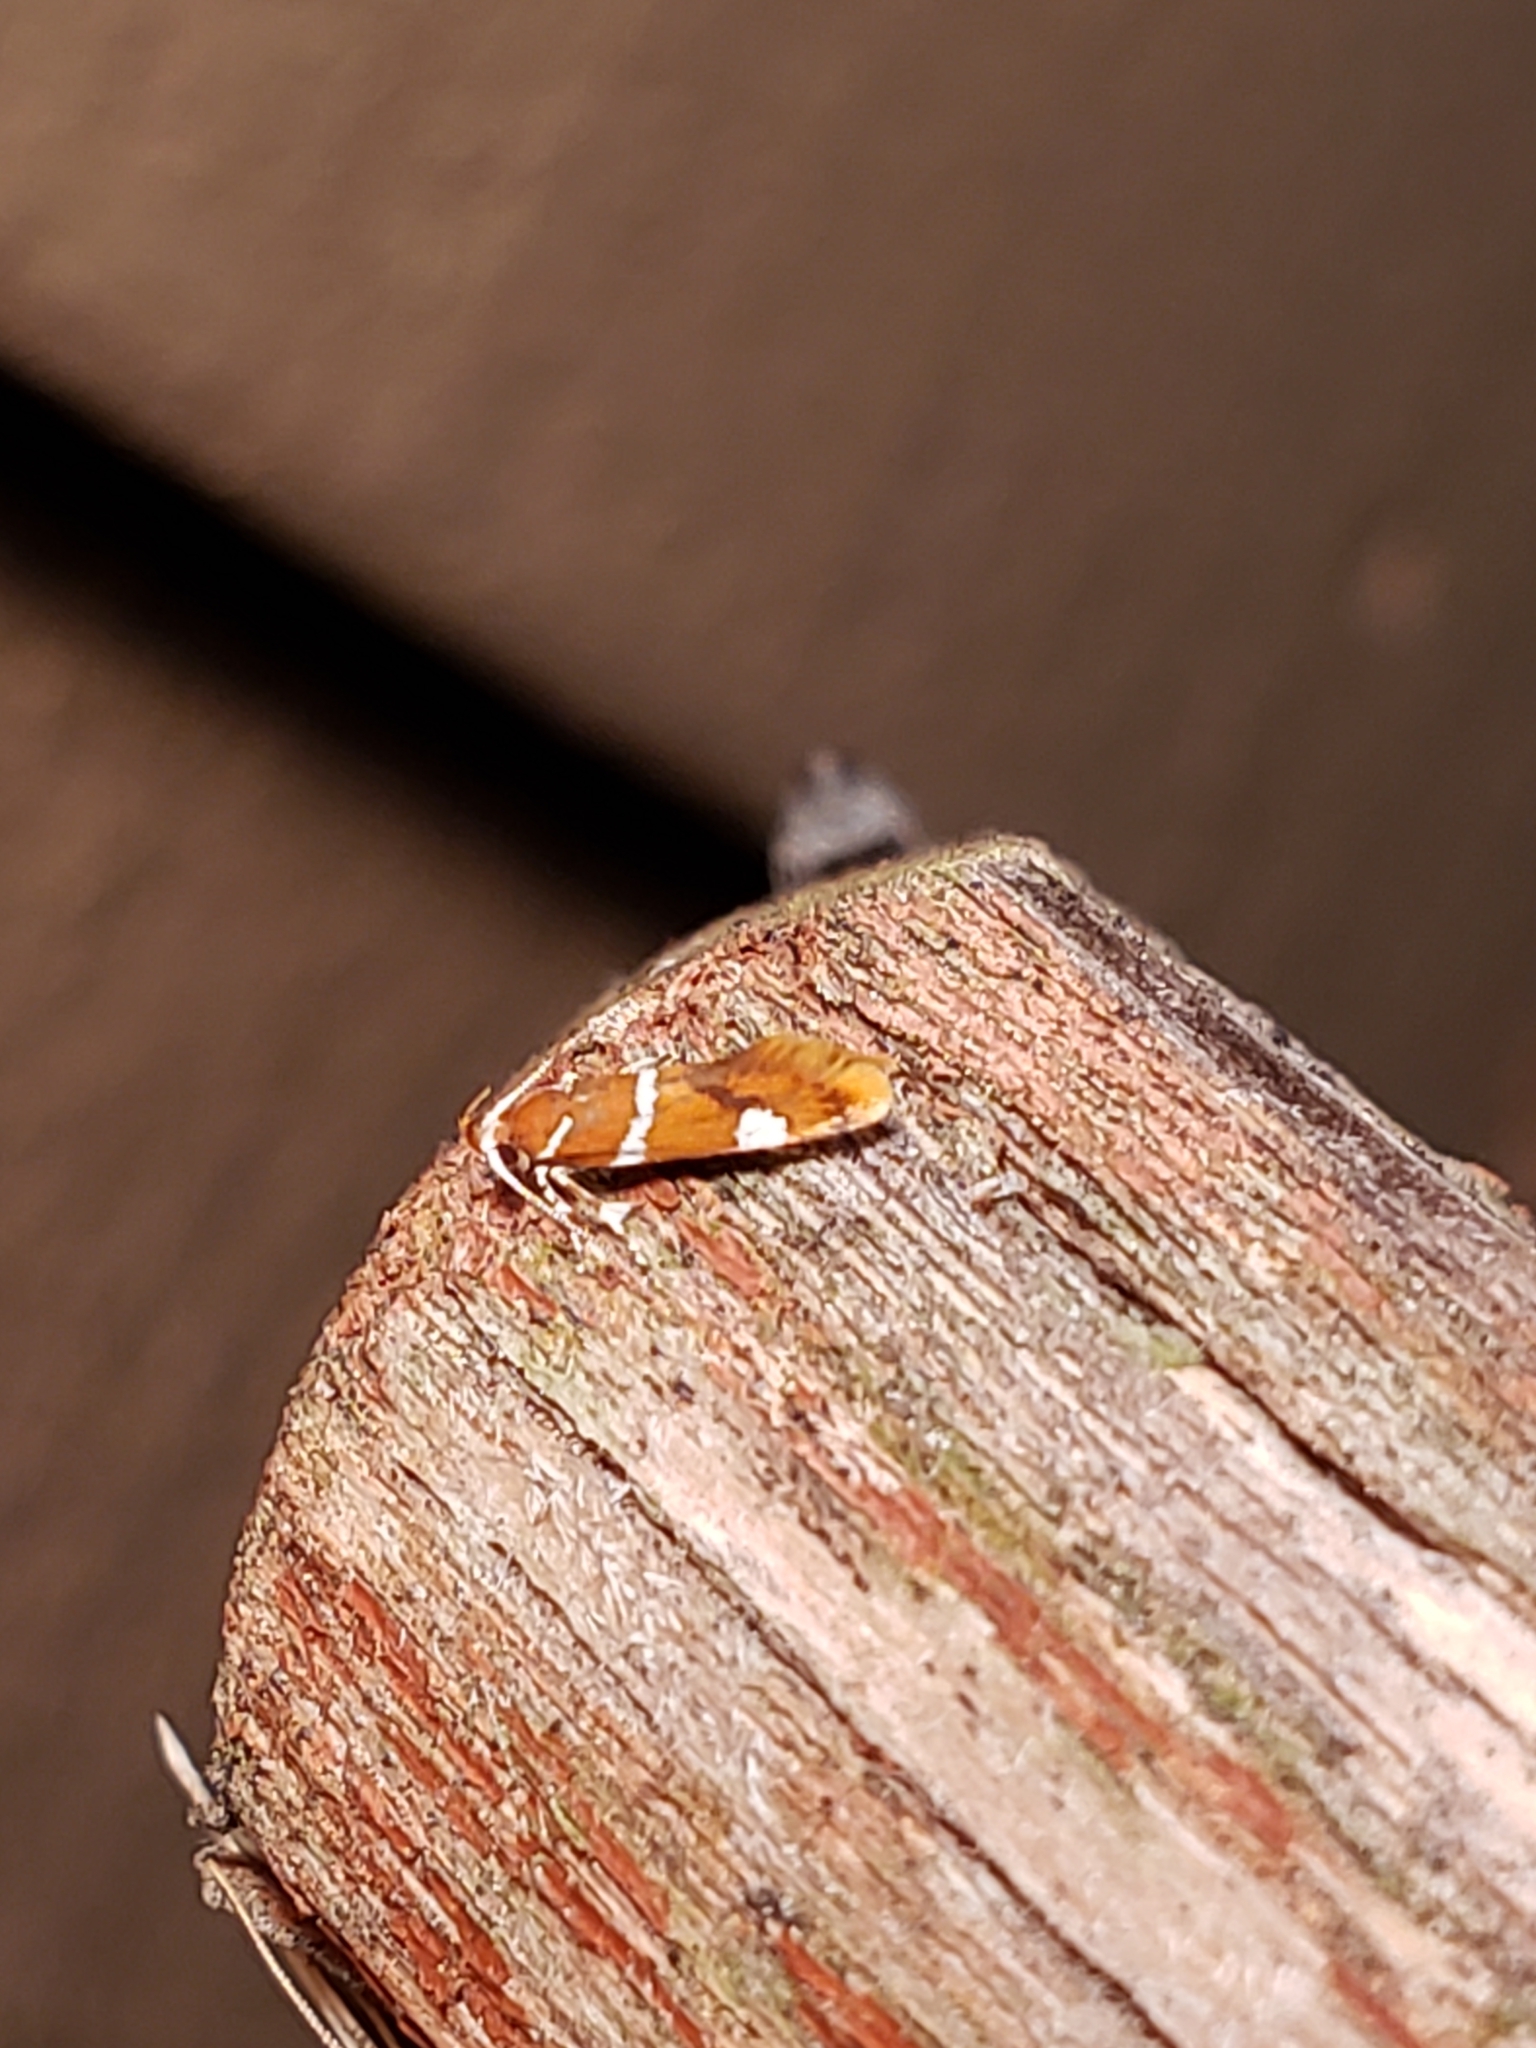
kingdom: Animalia
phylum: Arthropoda
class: Insecta
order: Lepidoptera
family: Oecophoridae
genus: Promalactis
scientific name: Promalactis suzukiella
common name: Moth
